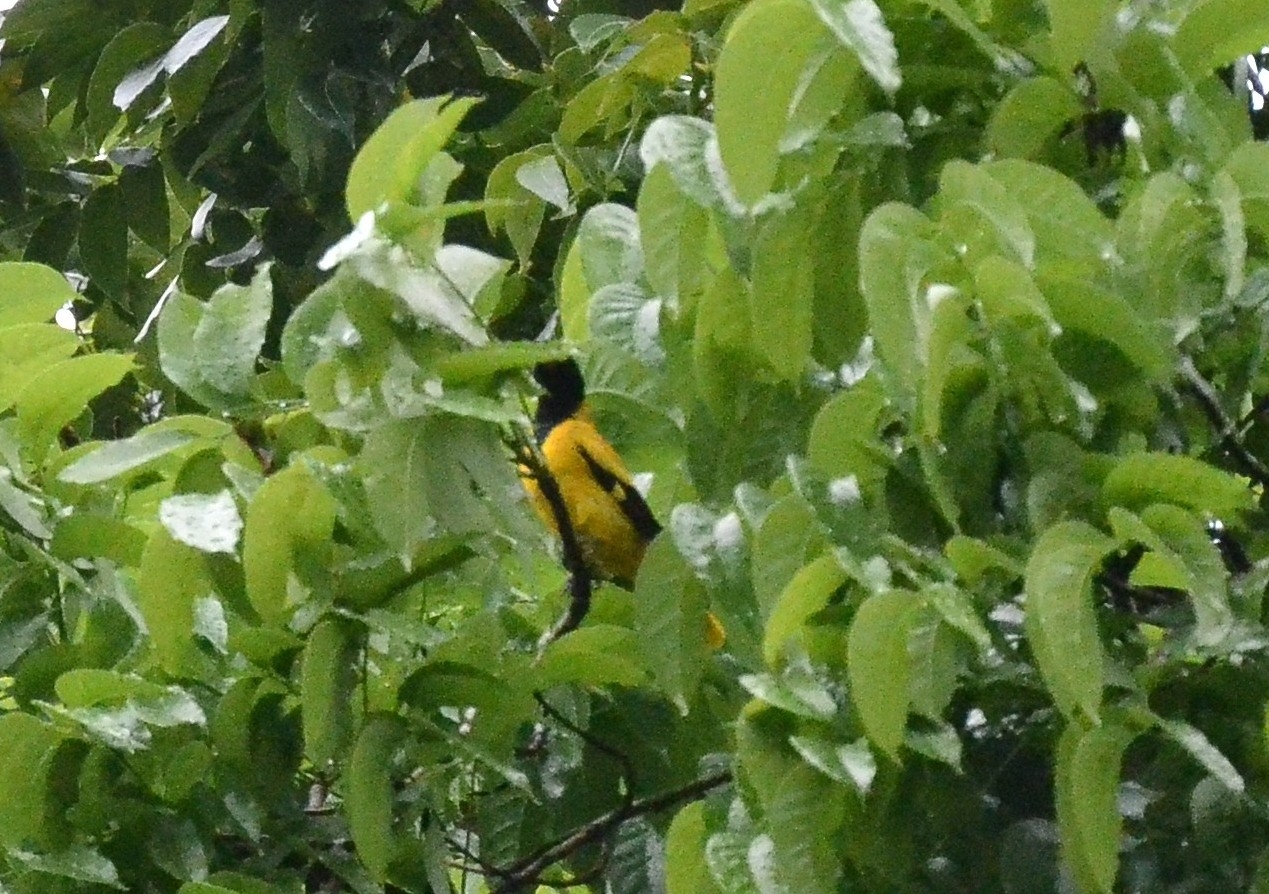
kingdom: Animalia
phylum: Chordata
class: Aves
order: Passeriformes
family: Oriolidae
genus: Oriolus
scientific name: Oriolus xanthornus
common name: Black-hooded oriole
